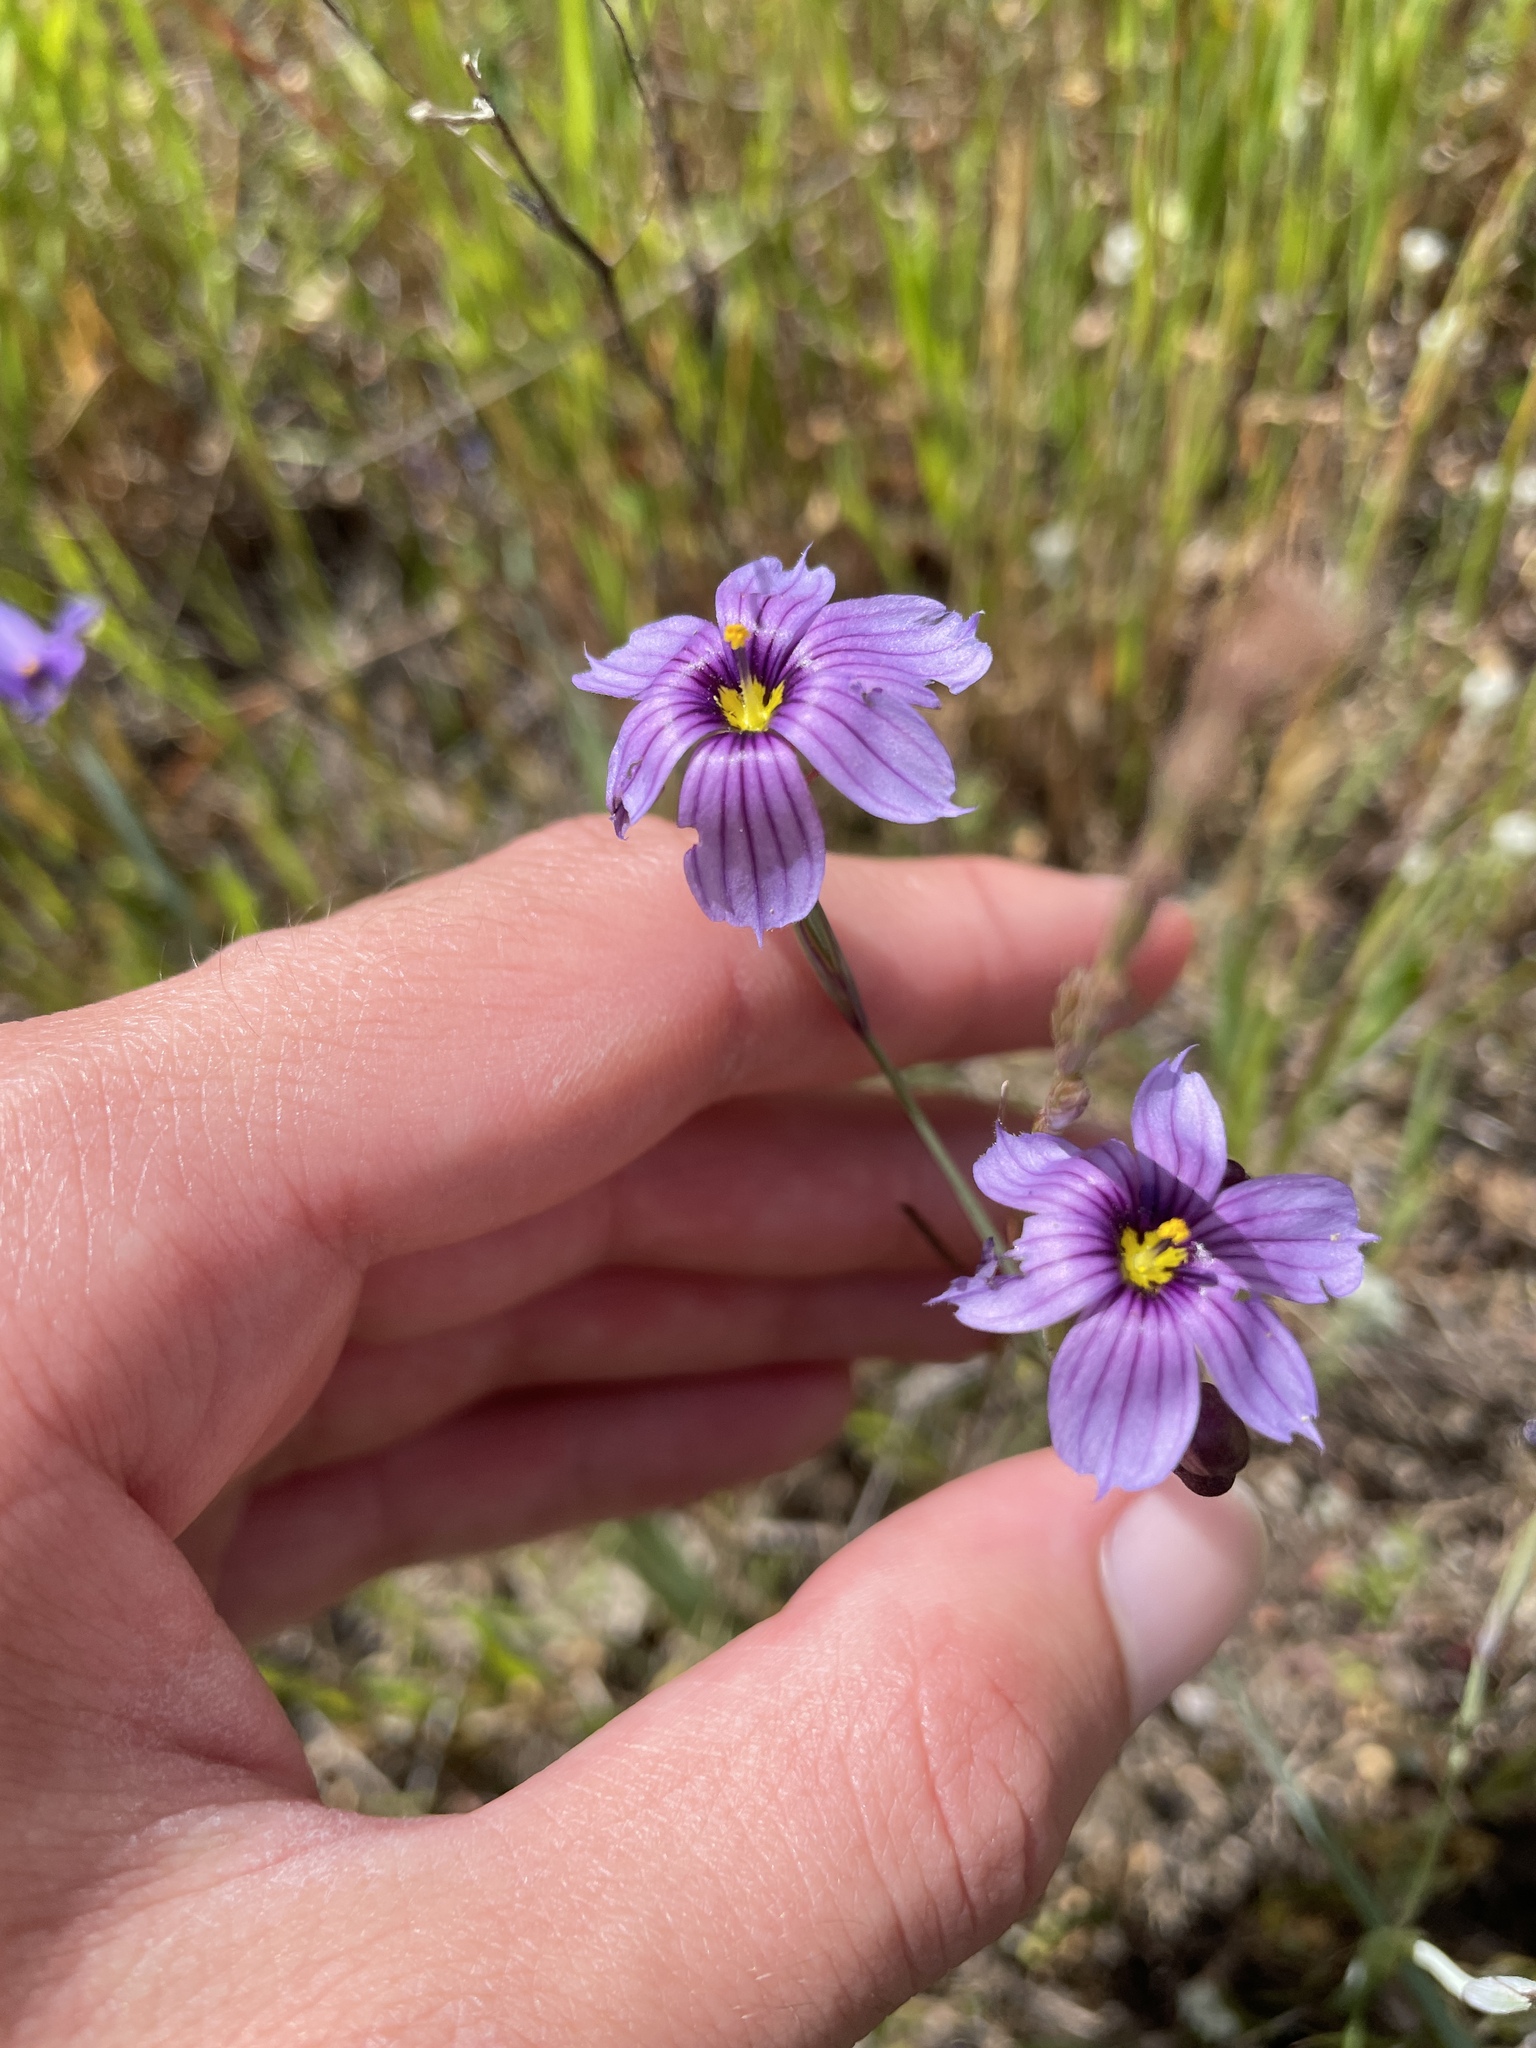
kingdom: Plantae
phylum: Tracheophyta
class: Liliopsida
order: Asparagales
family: Iridaceae
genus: Sisyrinchium
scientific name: Sisyrinchium bellum
